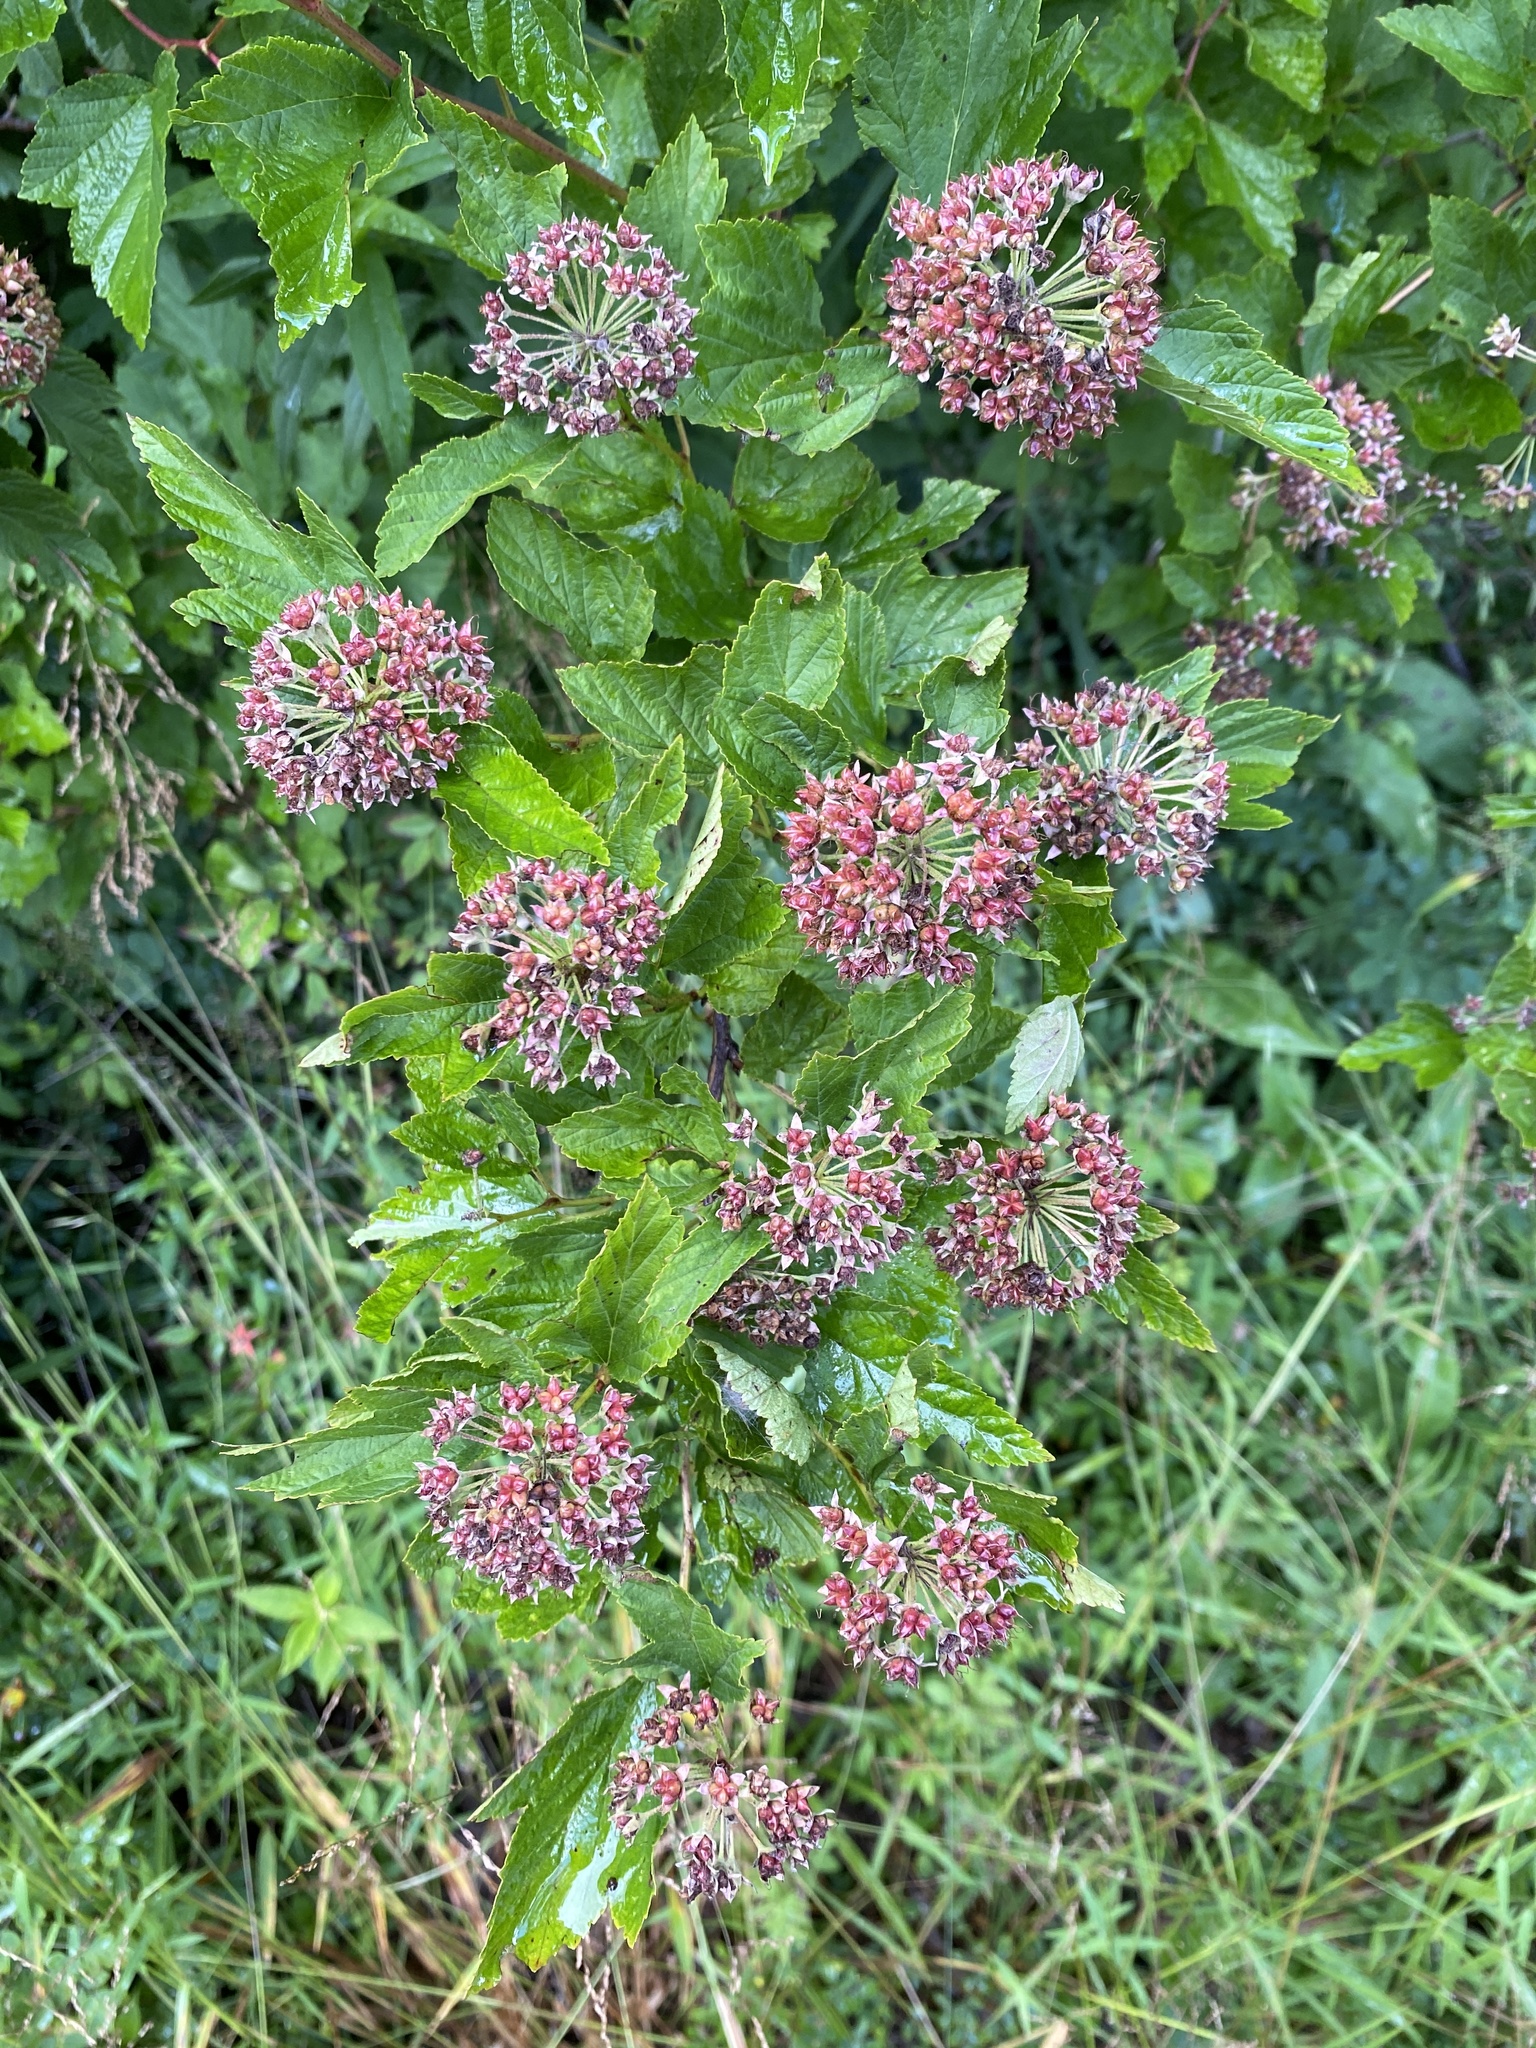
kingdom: Plantae
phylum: Tracheophyta
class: Magnoliopsida
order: Rosales
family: Rosaceae
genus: Physocarpus
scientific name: Physocarpus opulifolius
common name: Ninebark
